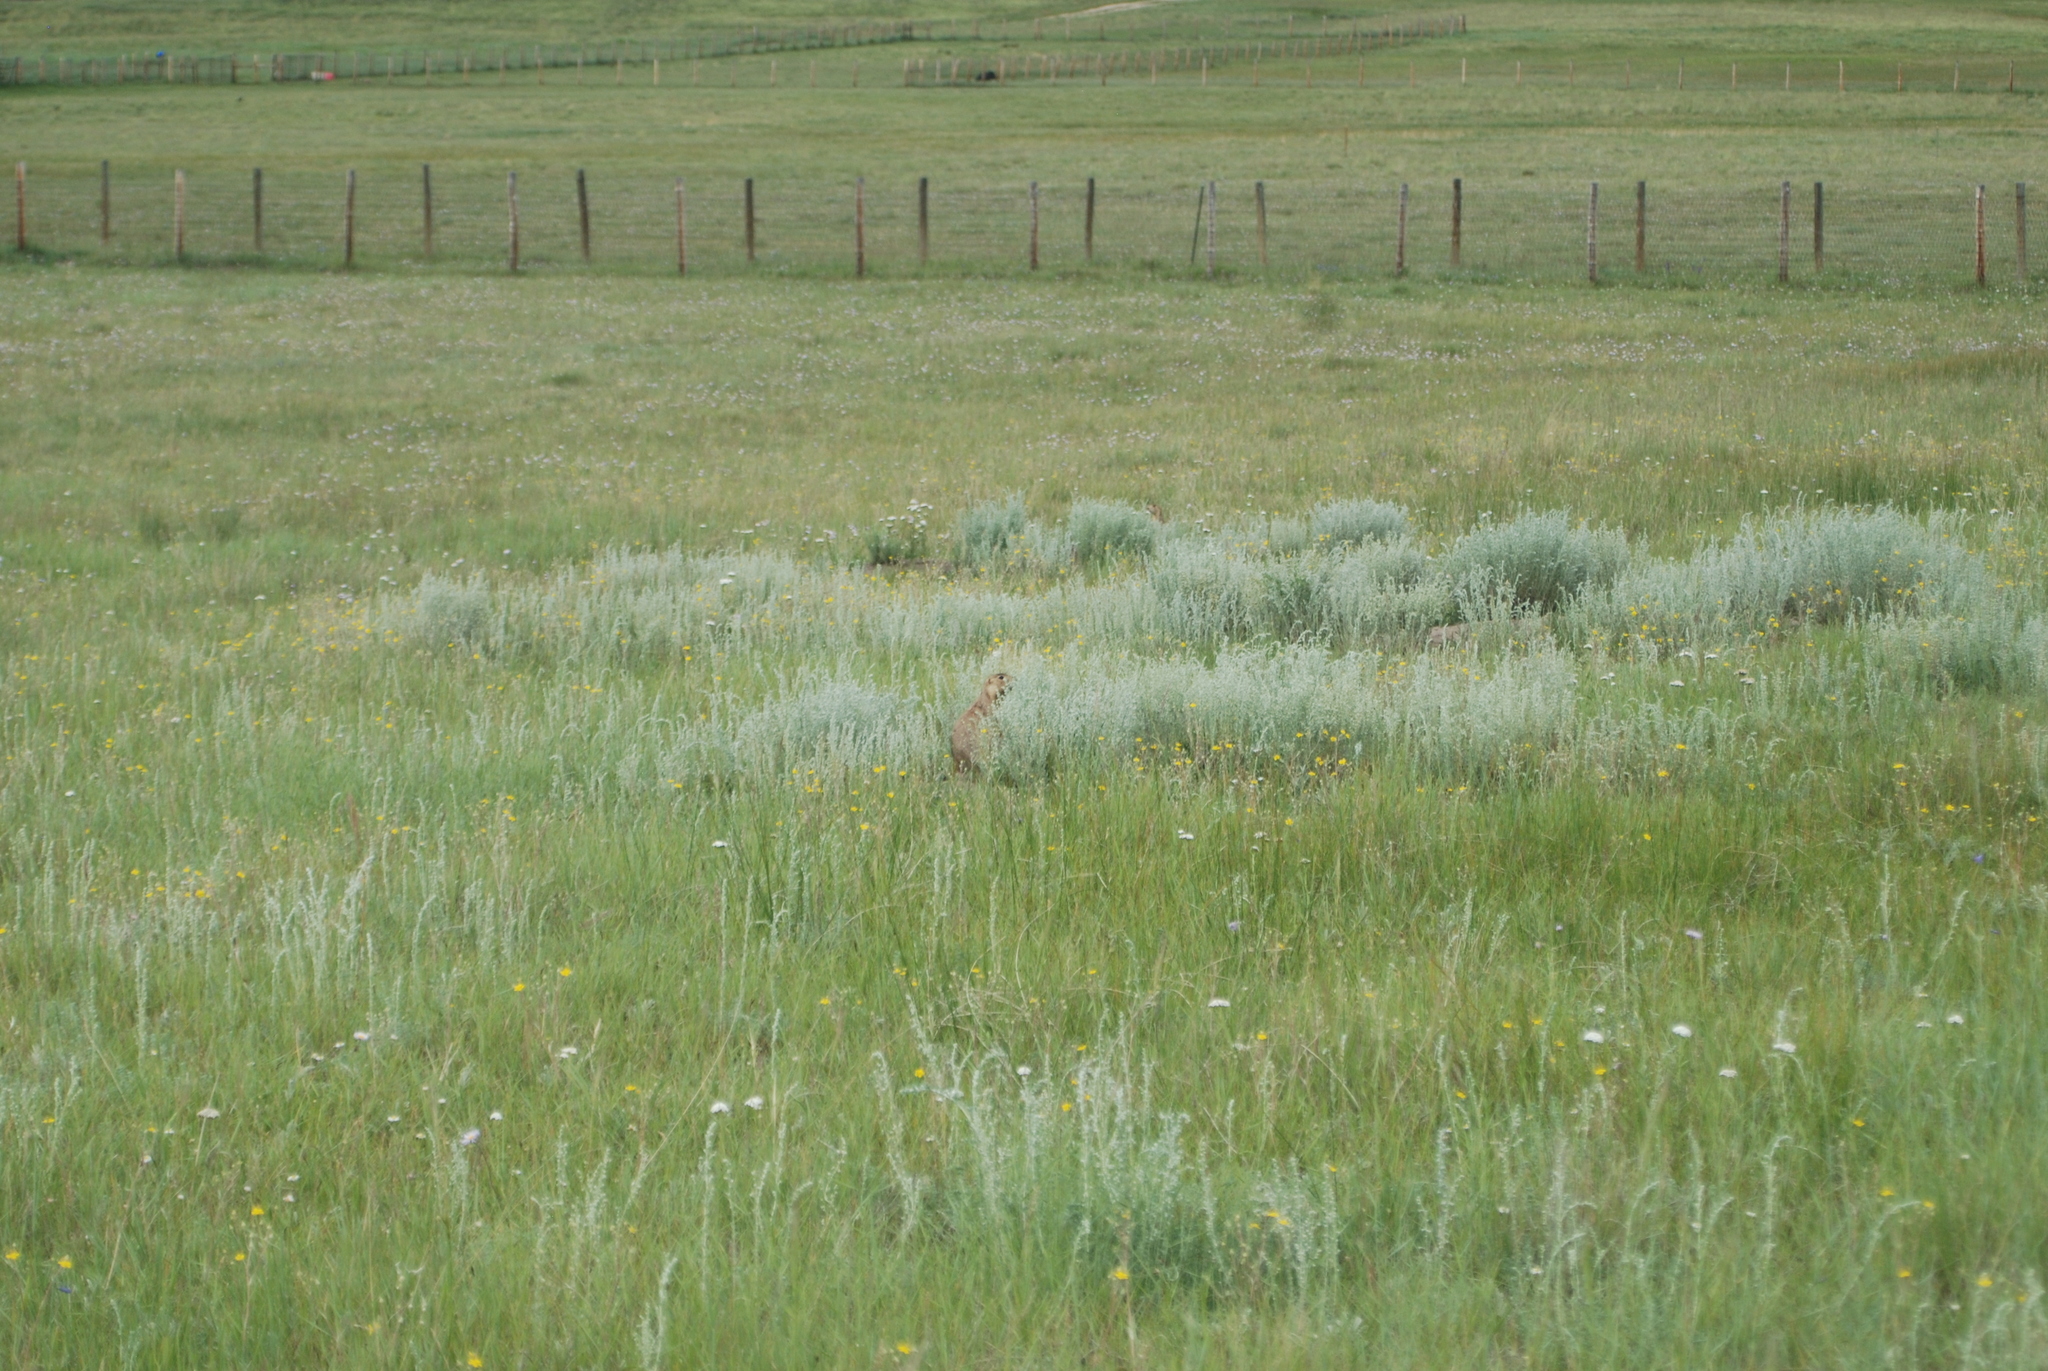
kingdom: Animalia
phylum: Chordata
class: Mammalia
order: Rodentia
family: Sciuridae
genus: Cynomys
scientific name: Cynomys gunnisoni
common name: Gunnison's prairie dog
